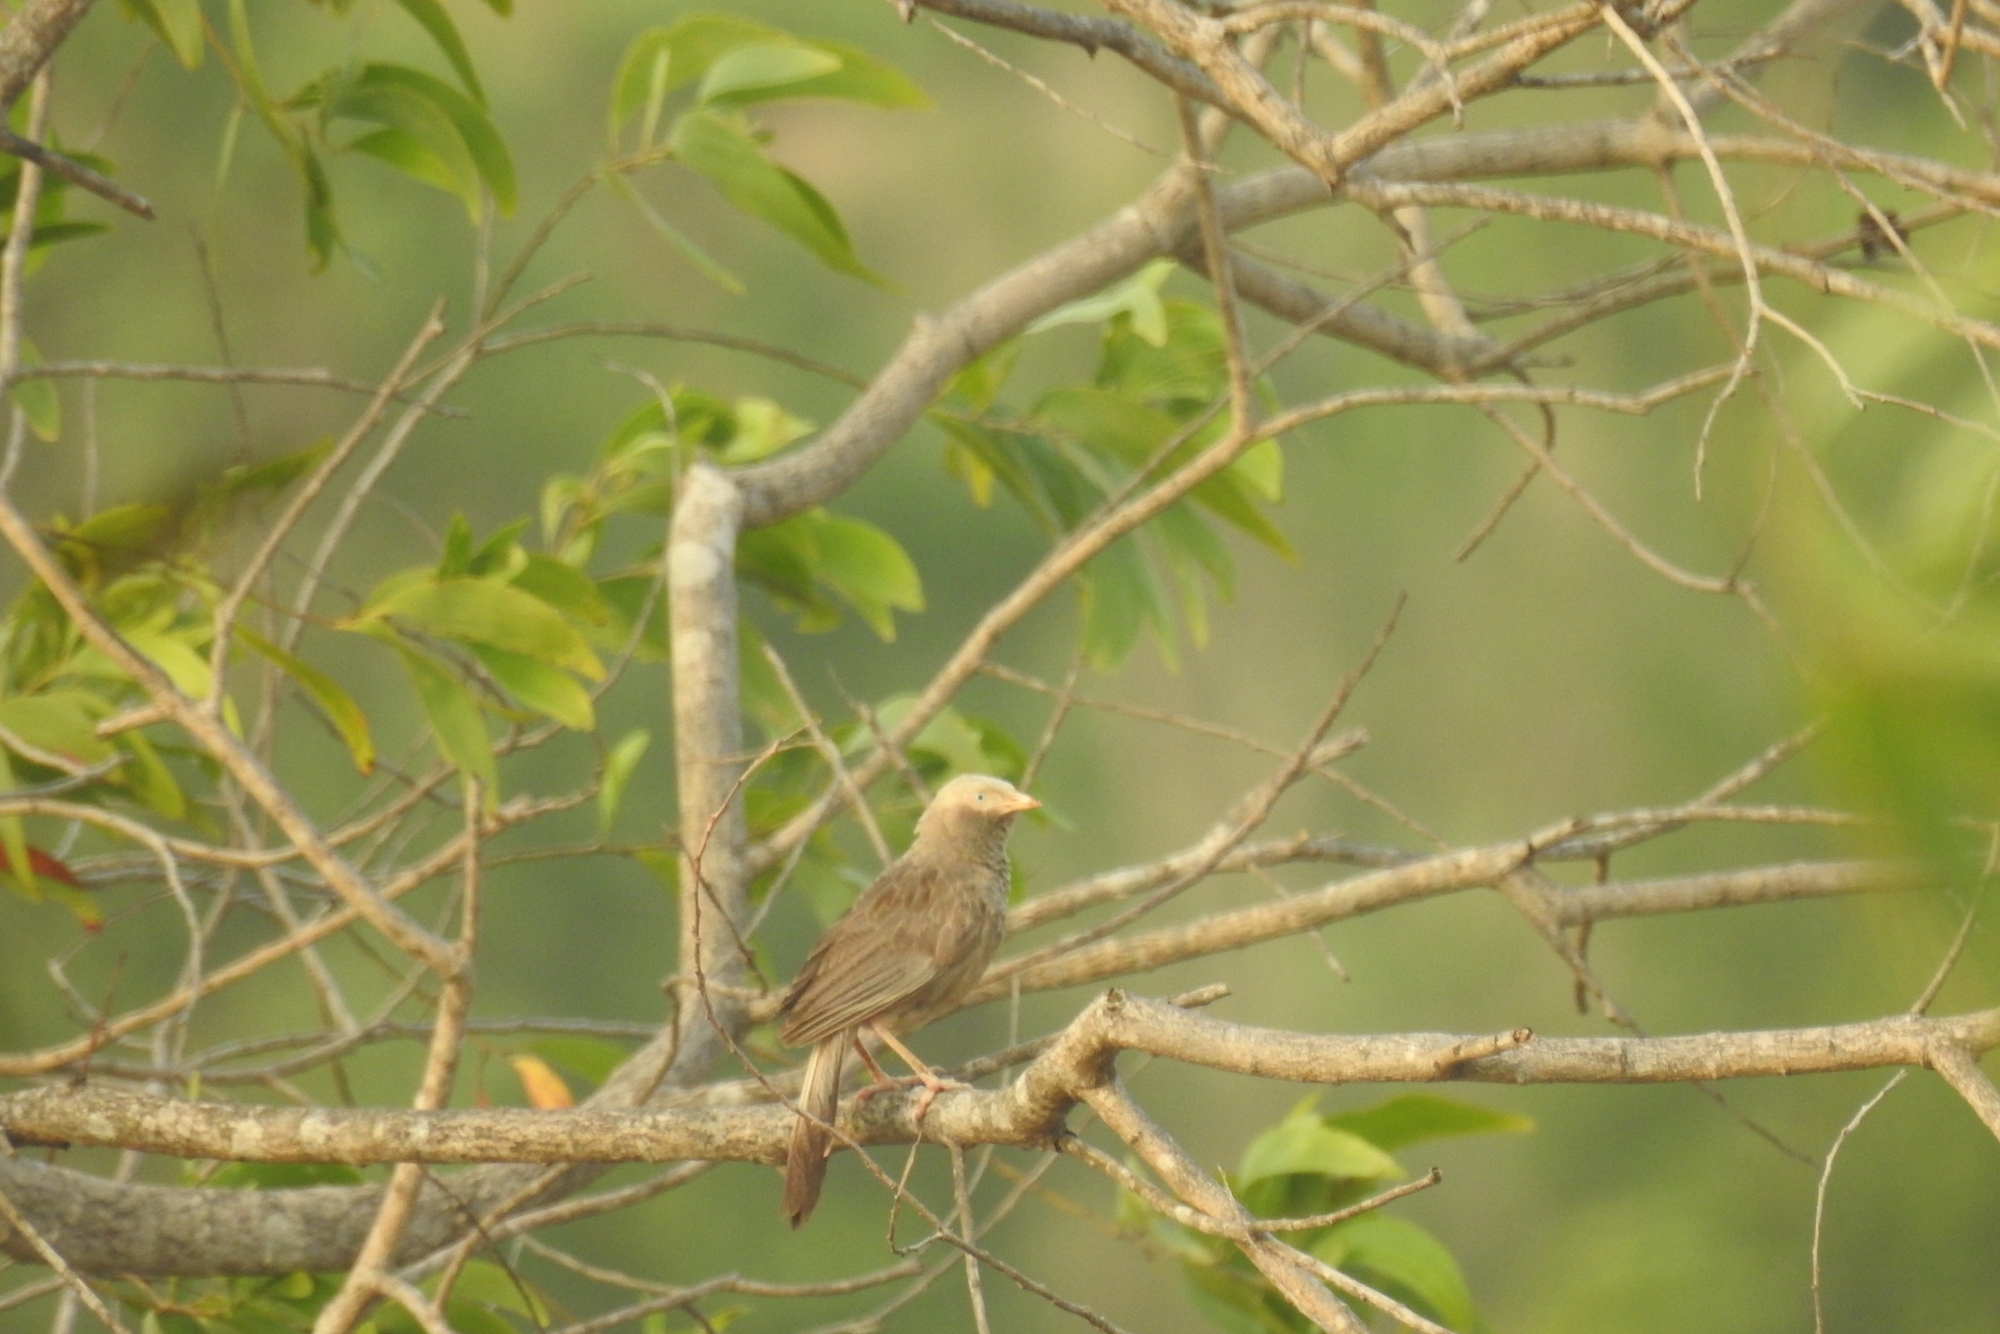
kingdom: Animalia
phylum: Chordata
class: Aves
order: Passeriformes
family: Leiothrichidae
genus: Turdoides
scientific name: Turdoides affinis
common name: Yellow-billed babbler
